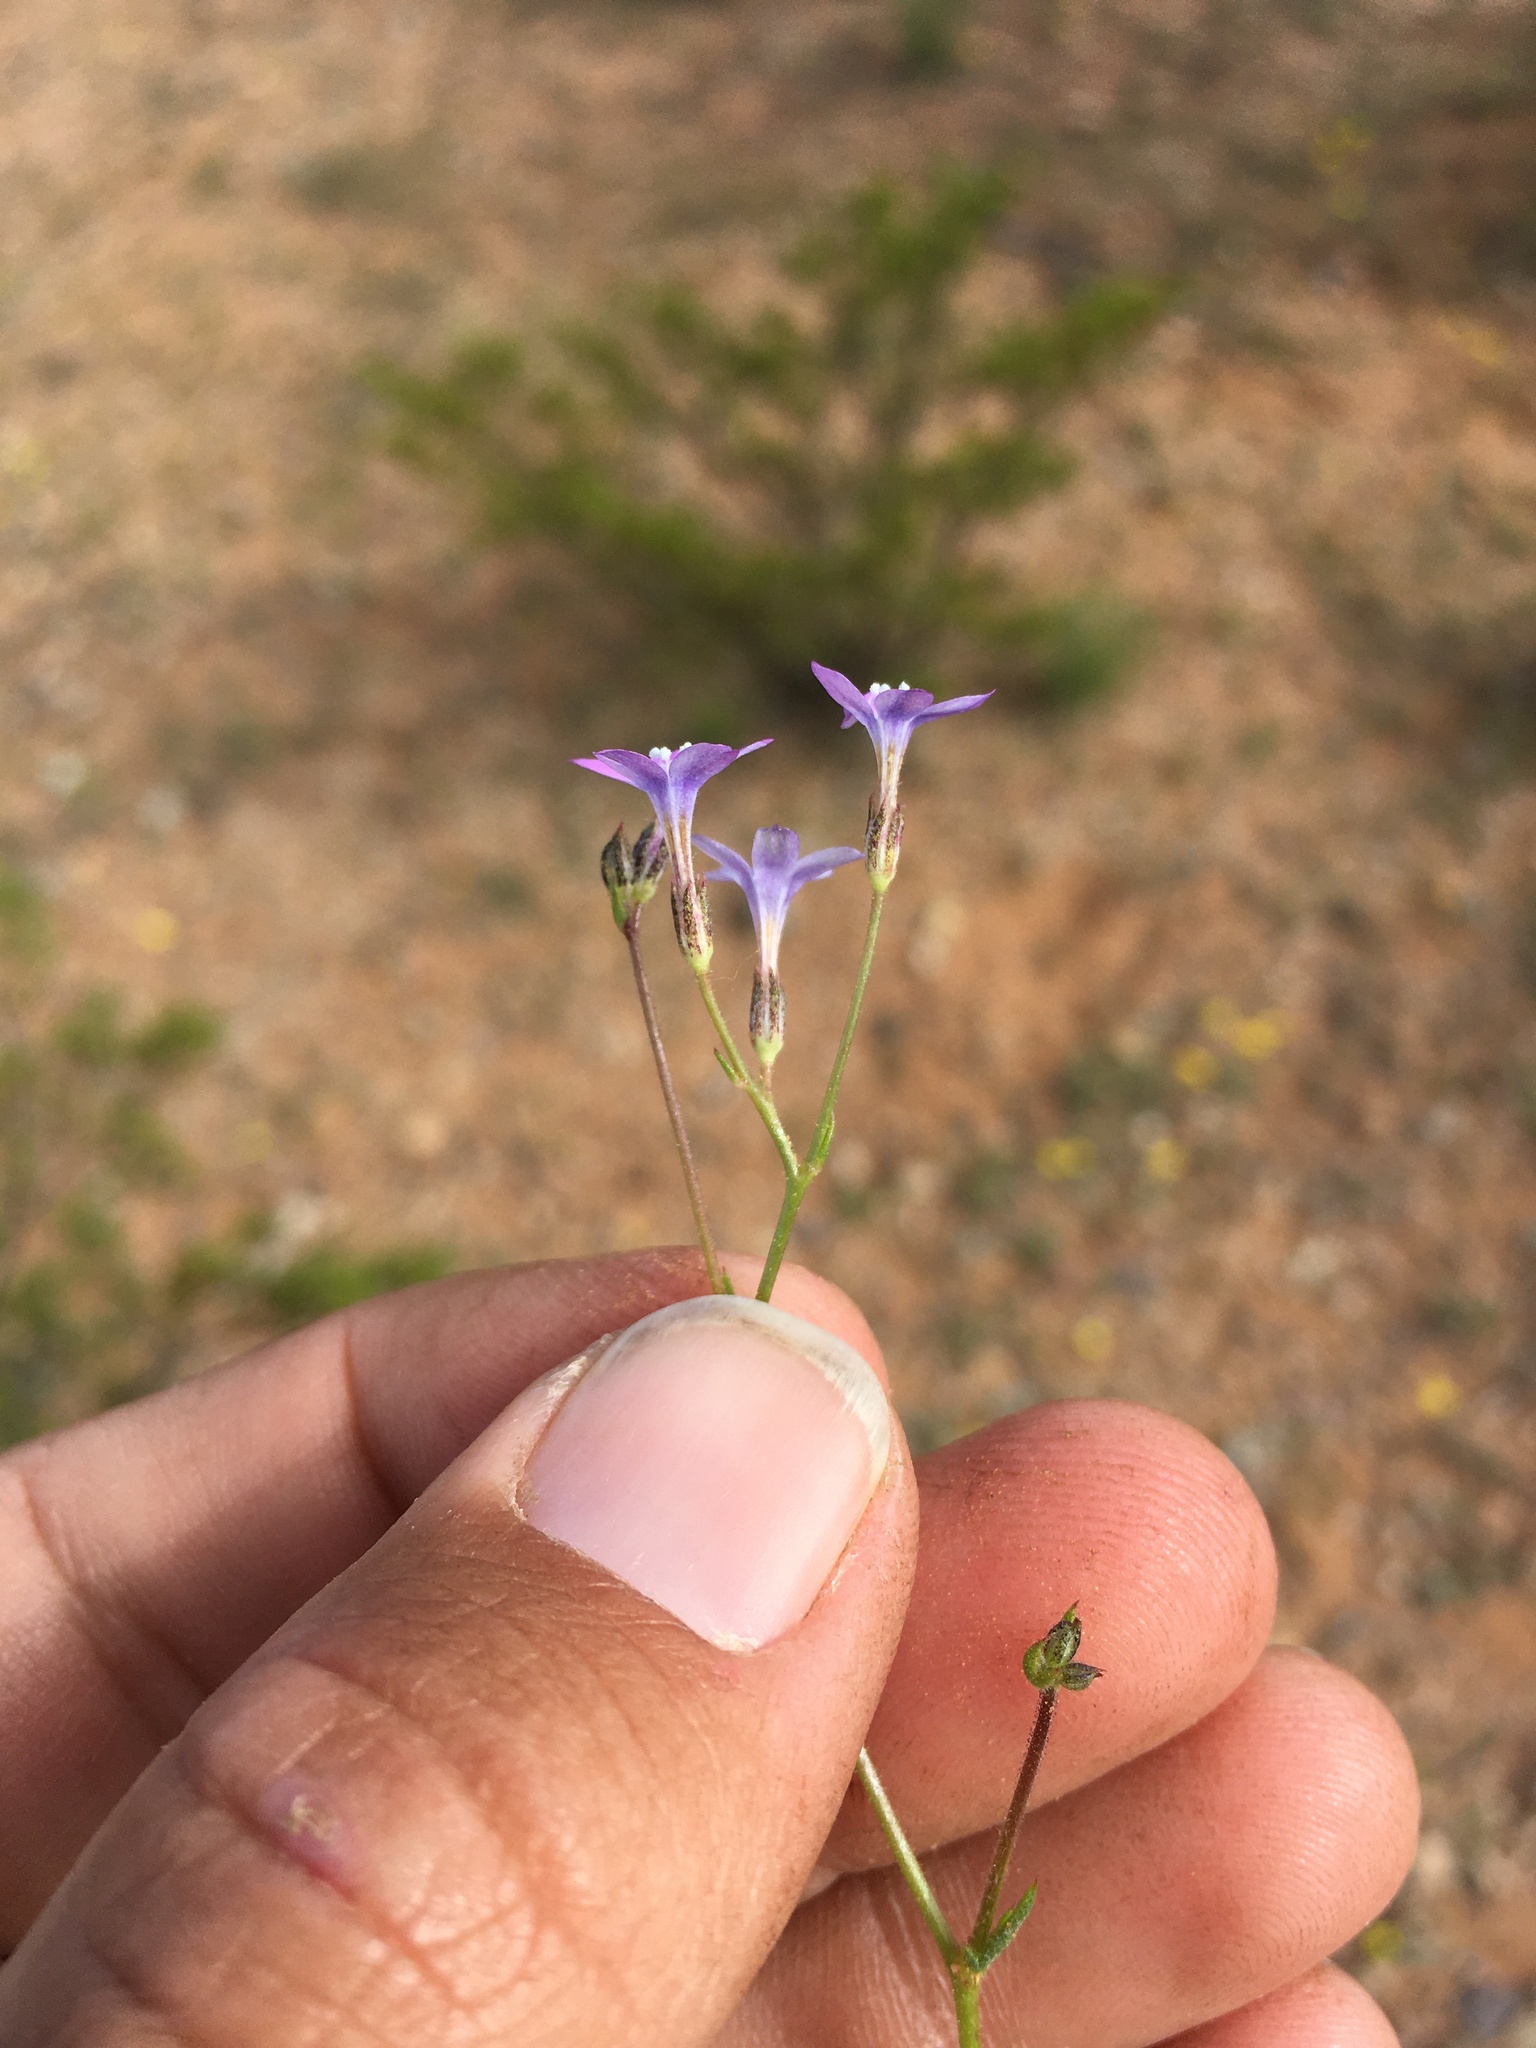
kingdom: Plantae
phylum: Tracheophyta
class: Magnoliopsida
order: Ericales
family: Polemoniaceae
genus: Gilia
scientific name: Gilia flavocincta
